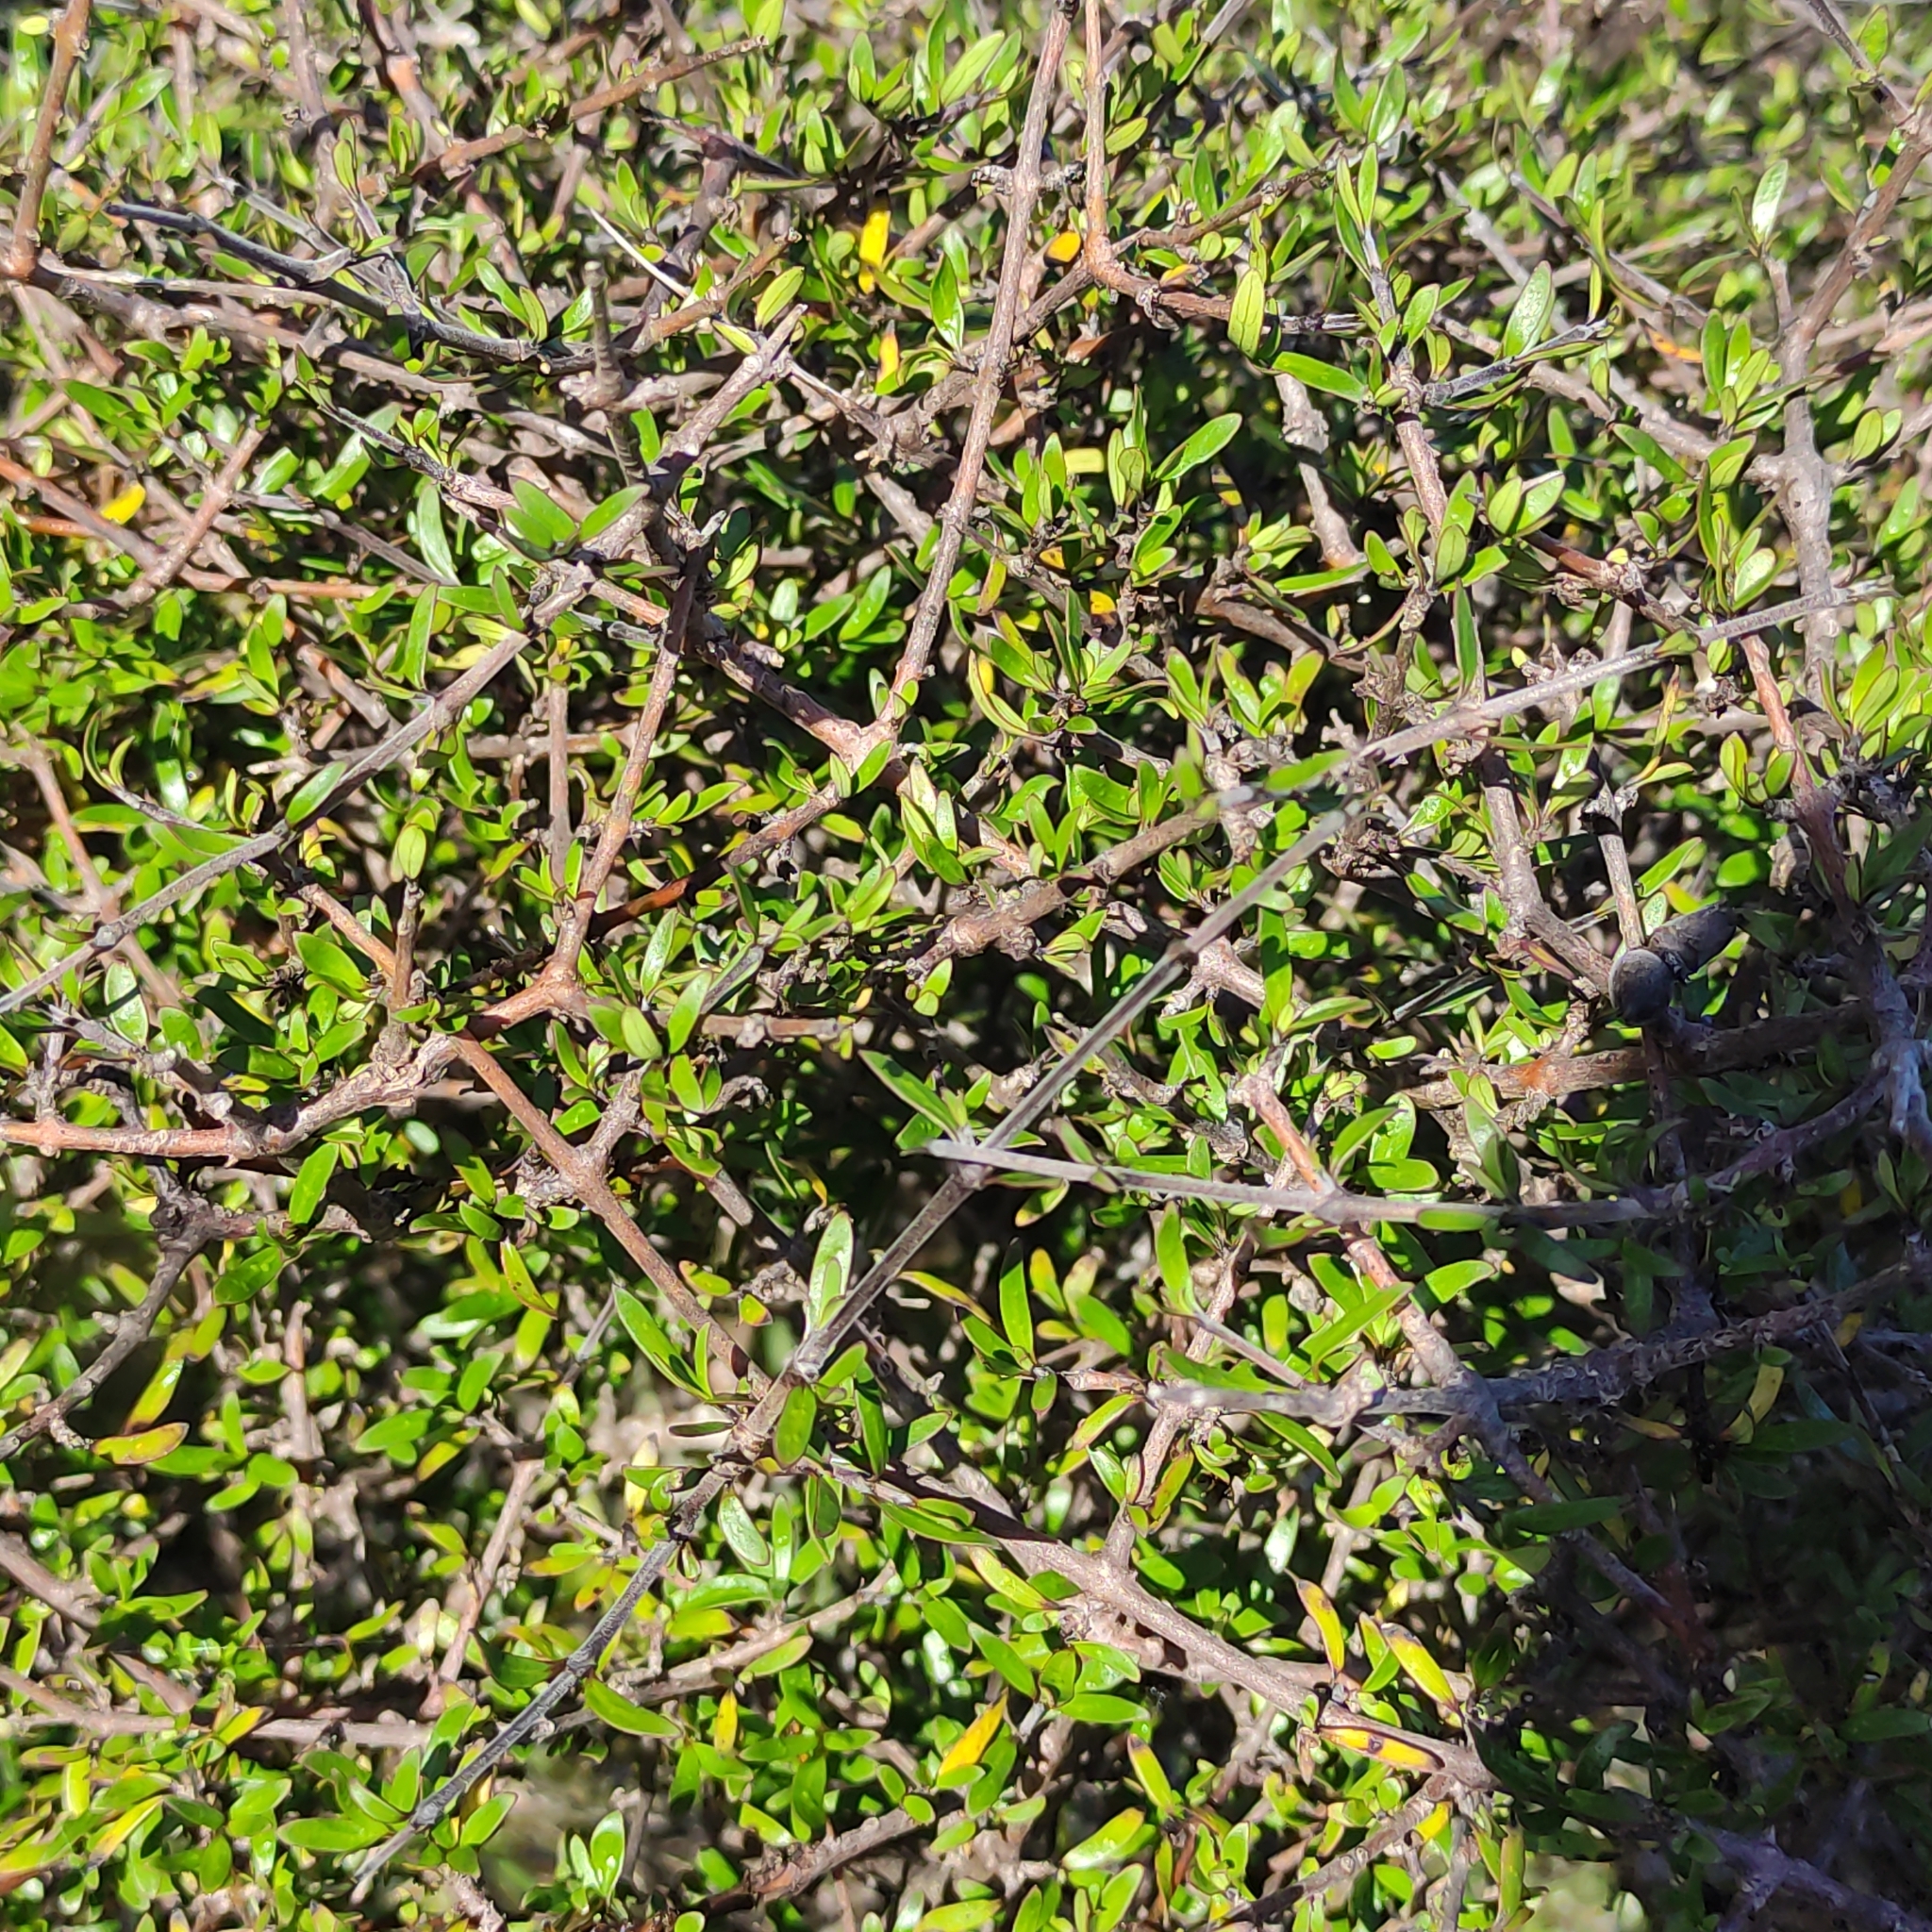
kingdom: Plantae
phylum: Tracheophyta
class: Magnoliopsida
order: Gentianales
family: Rubiaceae
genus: Coprosma
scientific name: Coprosma propinqua
